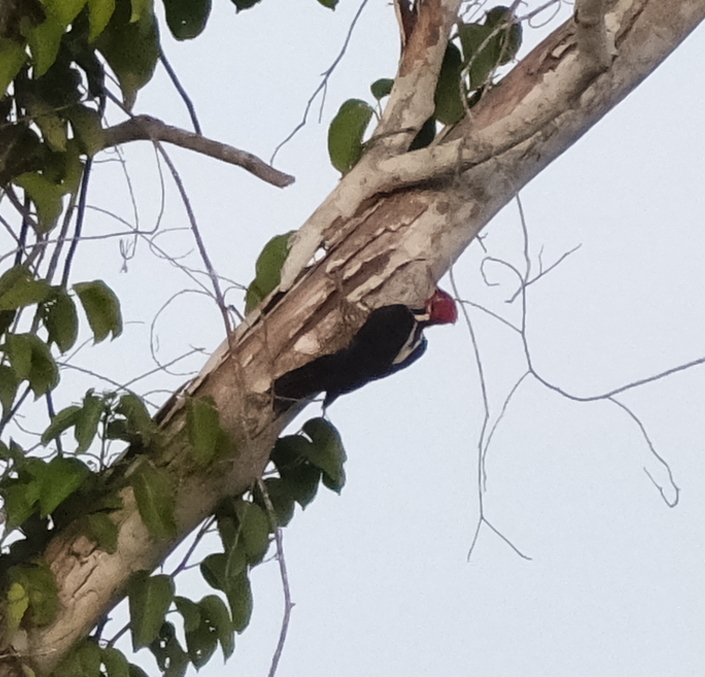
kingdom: Animalia
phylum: Chordata
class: Aves
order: Piciformes
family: Picidae
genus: Campephilus
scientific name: Campephilus melanoleucos
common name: Crimson-crested woodpecker
